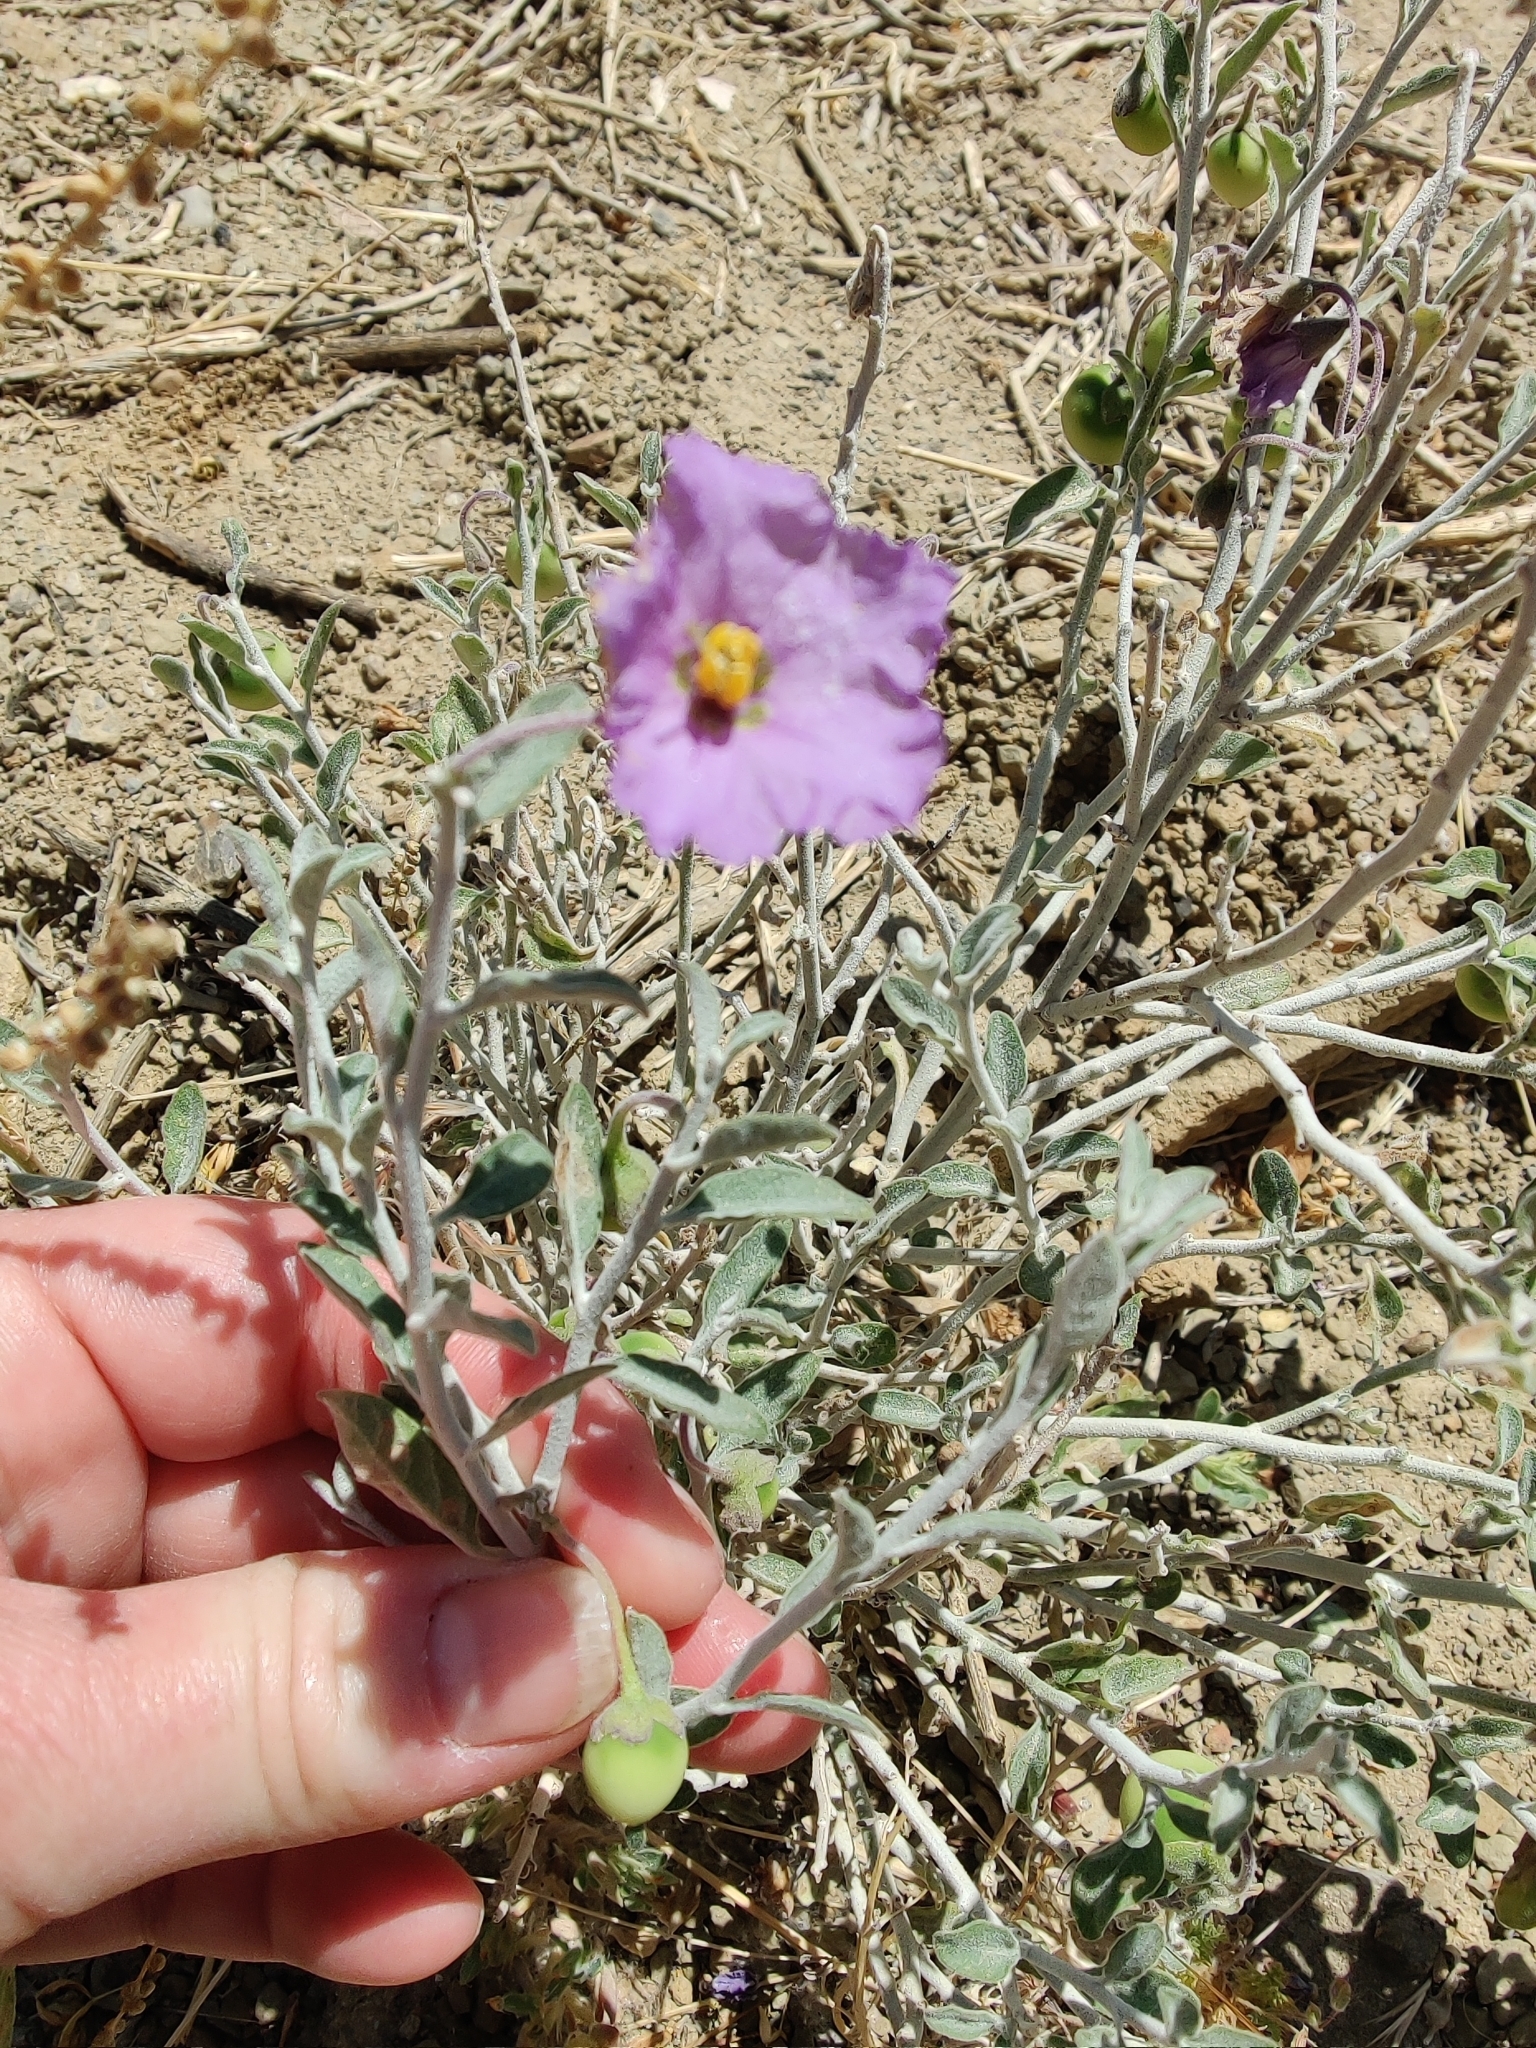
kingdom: Plantae
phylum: Tracheophyta
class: Magnoliopsida
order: Solanales
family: Solanaceae
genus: Solanum
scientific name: Solanum umbelliferum
